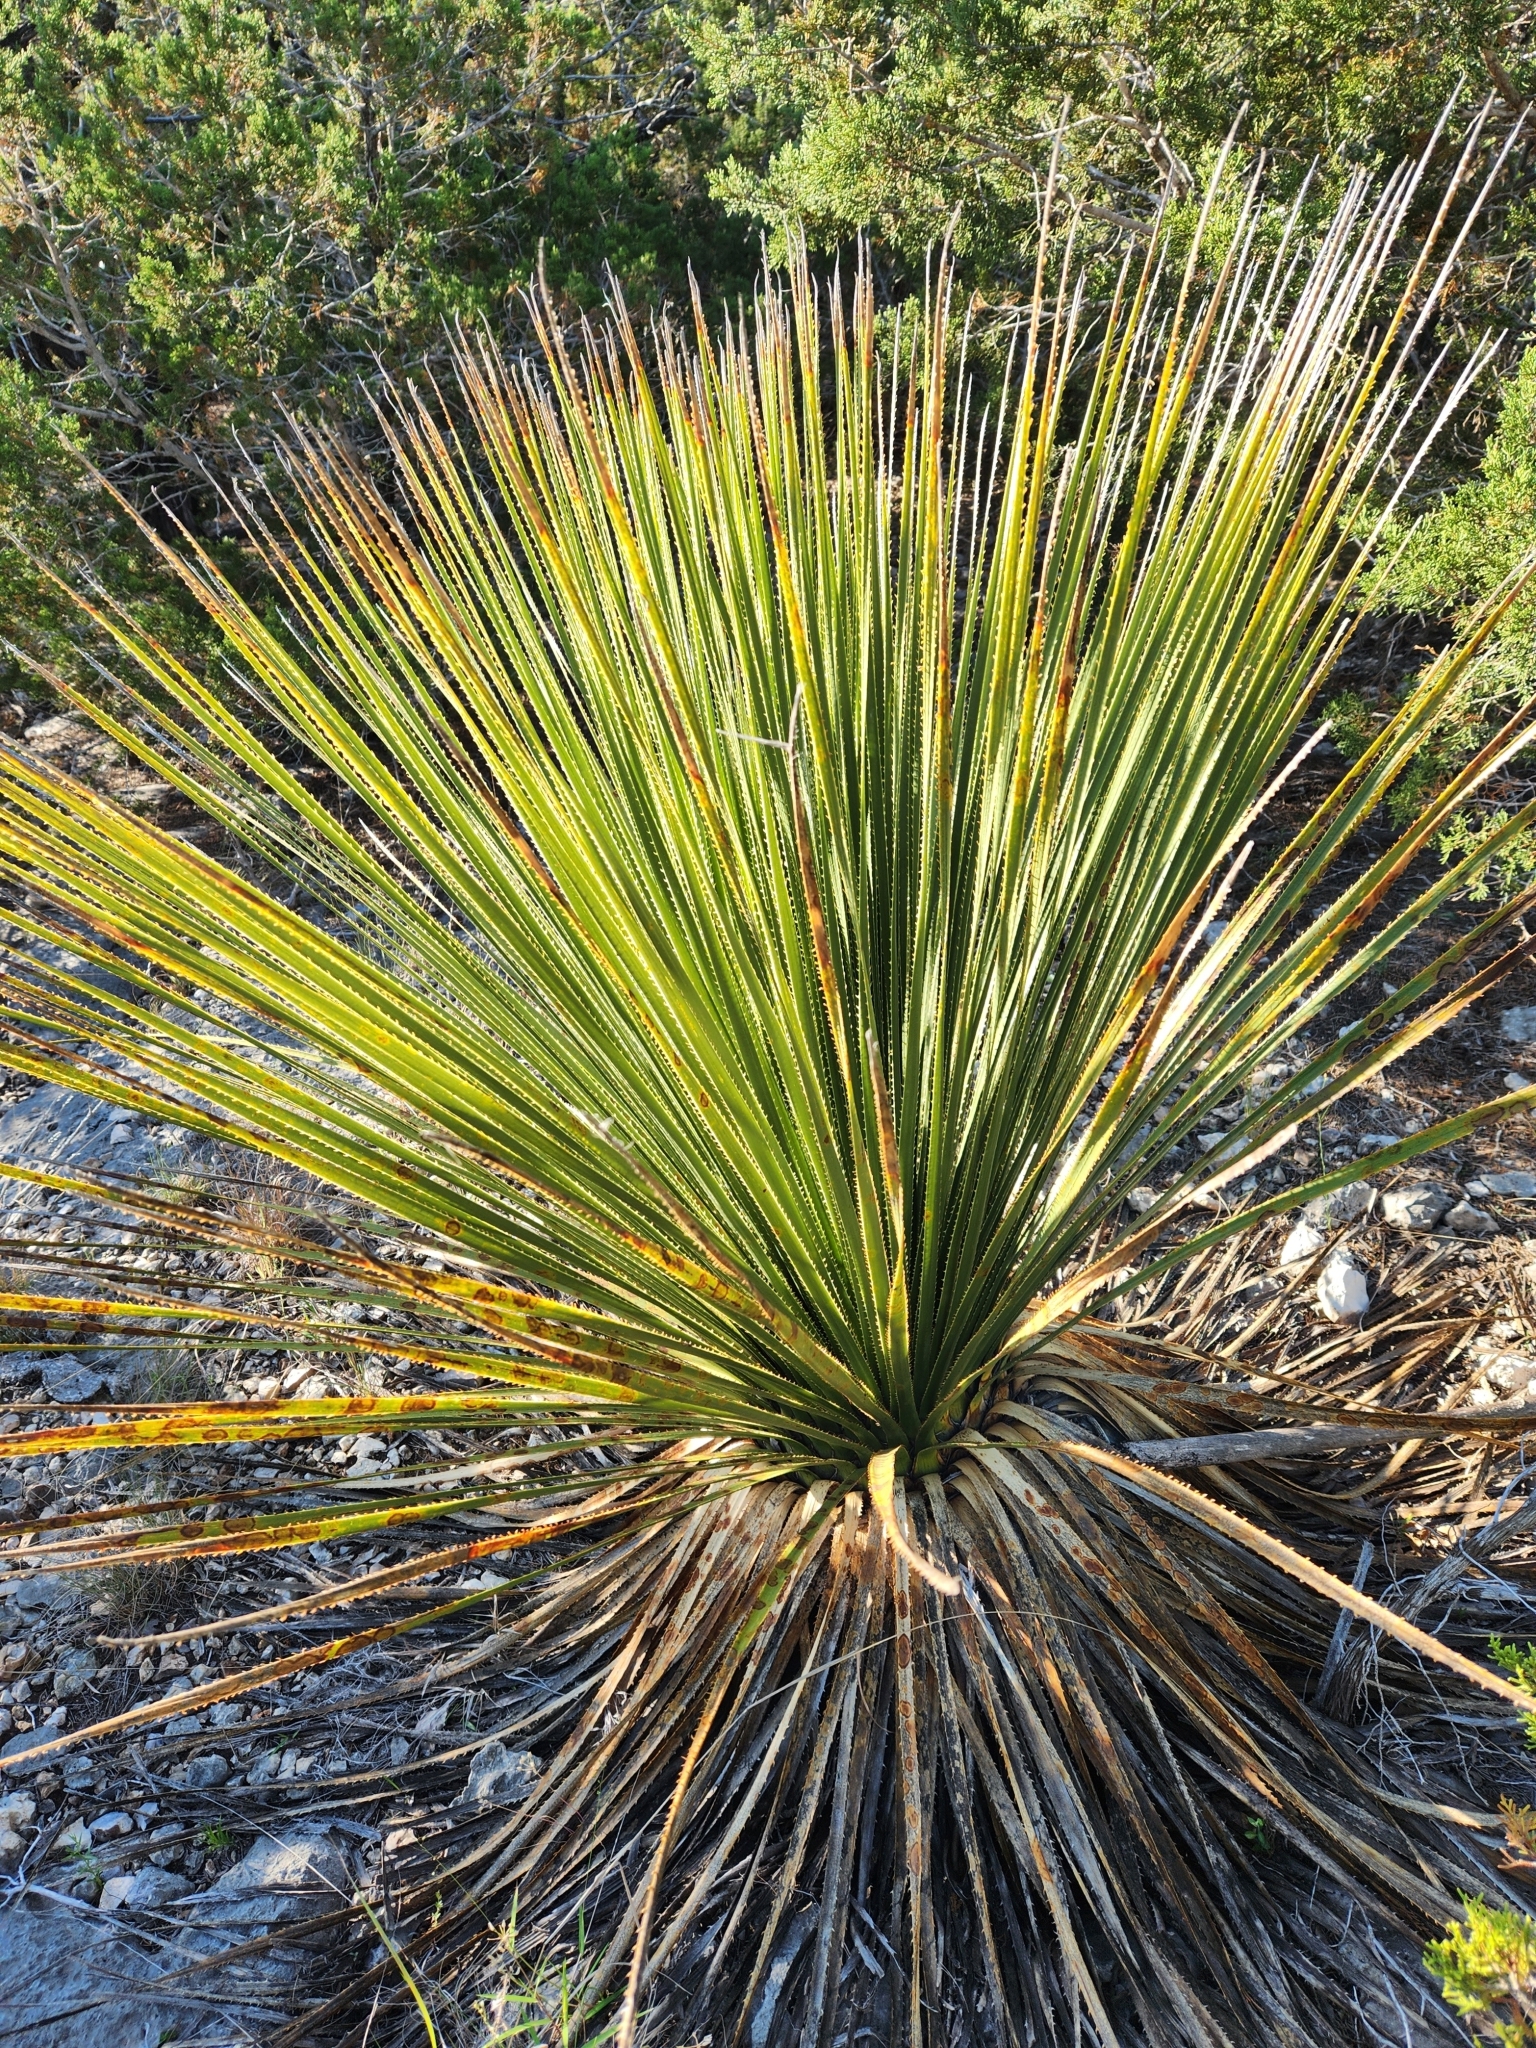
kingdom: Plantae
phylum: Tracheophyta
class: Liliopsida
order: Asparagales
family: Asparagaceae
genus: Dasylirion
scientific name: Dasylirion texanum
